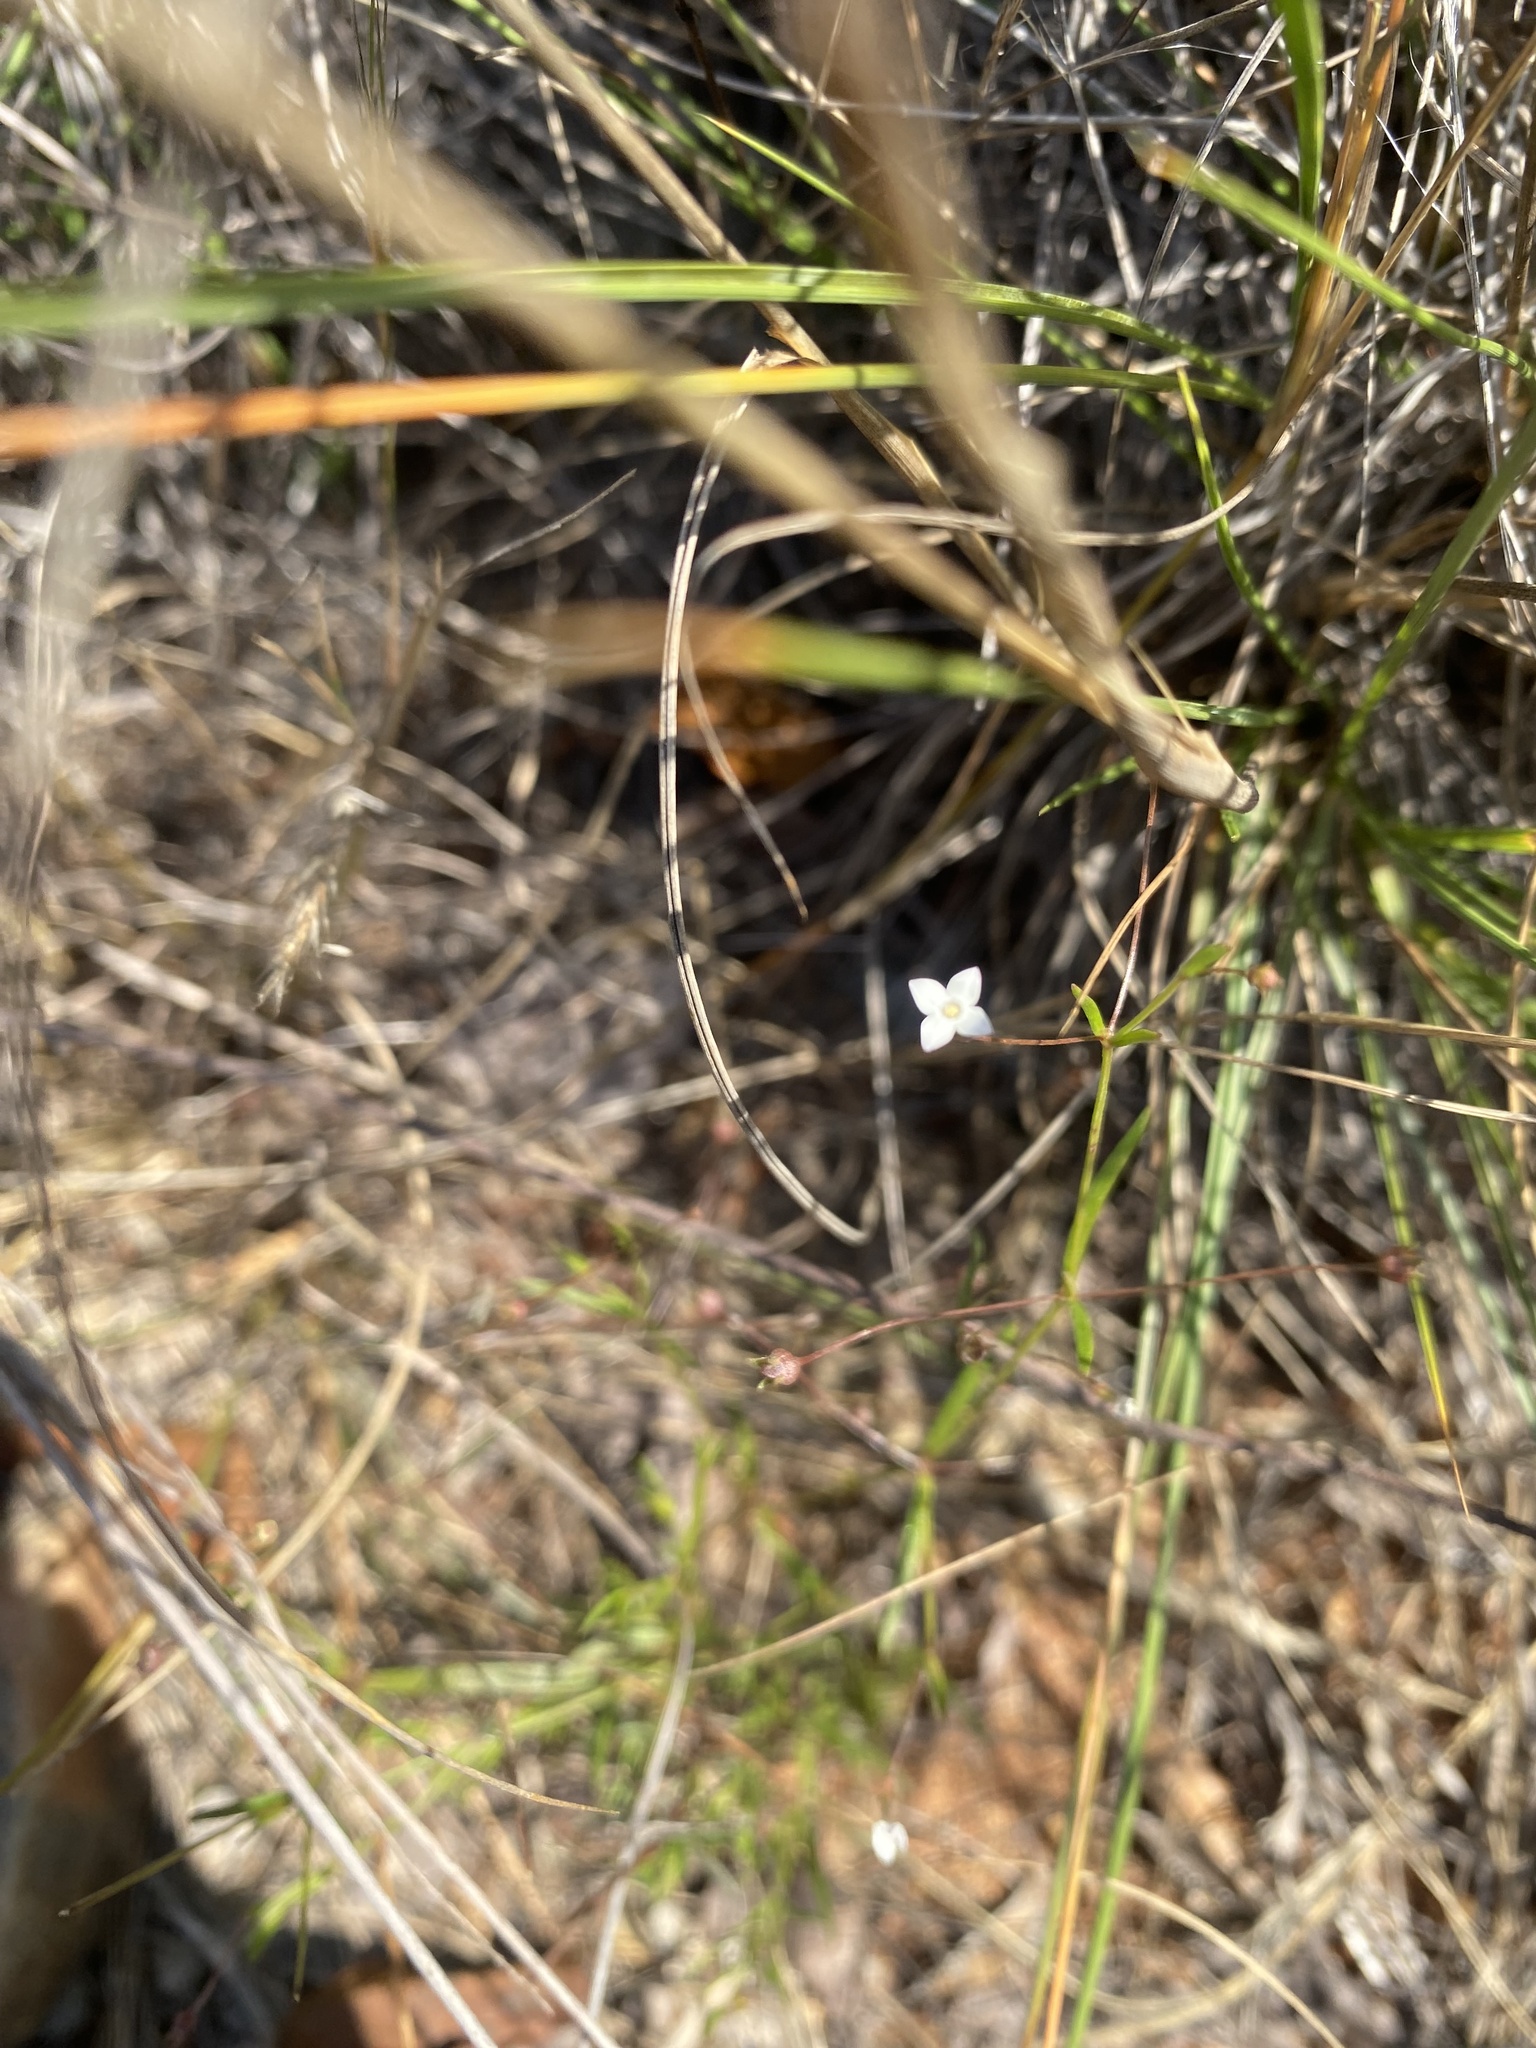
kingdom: Plantae
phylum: Tracheophyta
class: Magnoliopsida
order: Gentianales
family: Rubiaceae
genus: Oldenlandia
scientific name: Oldenlandia herbacea
